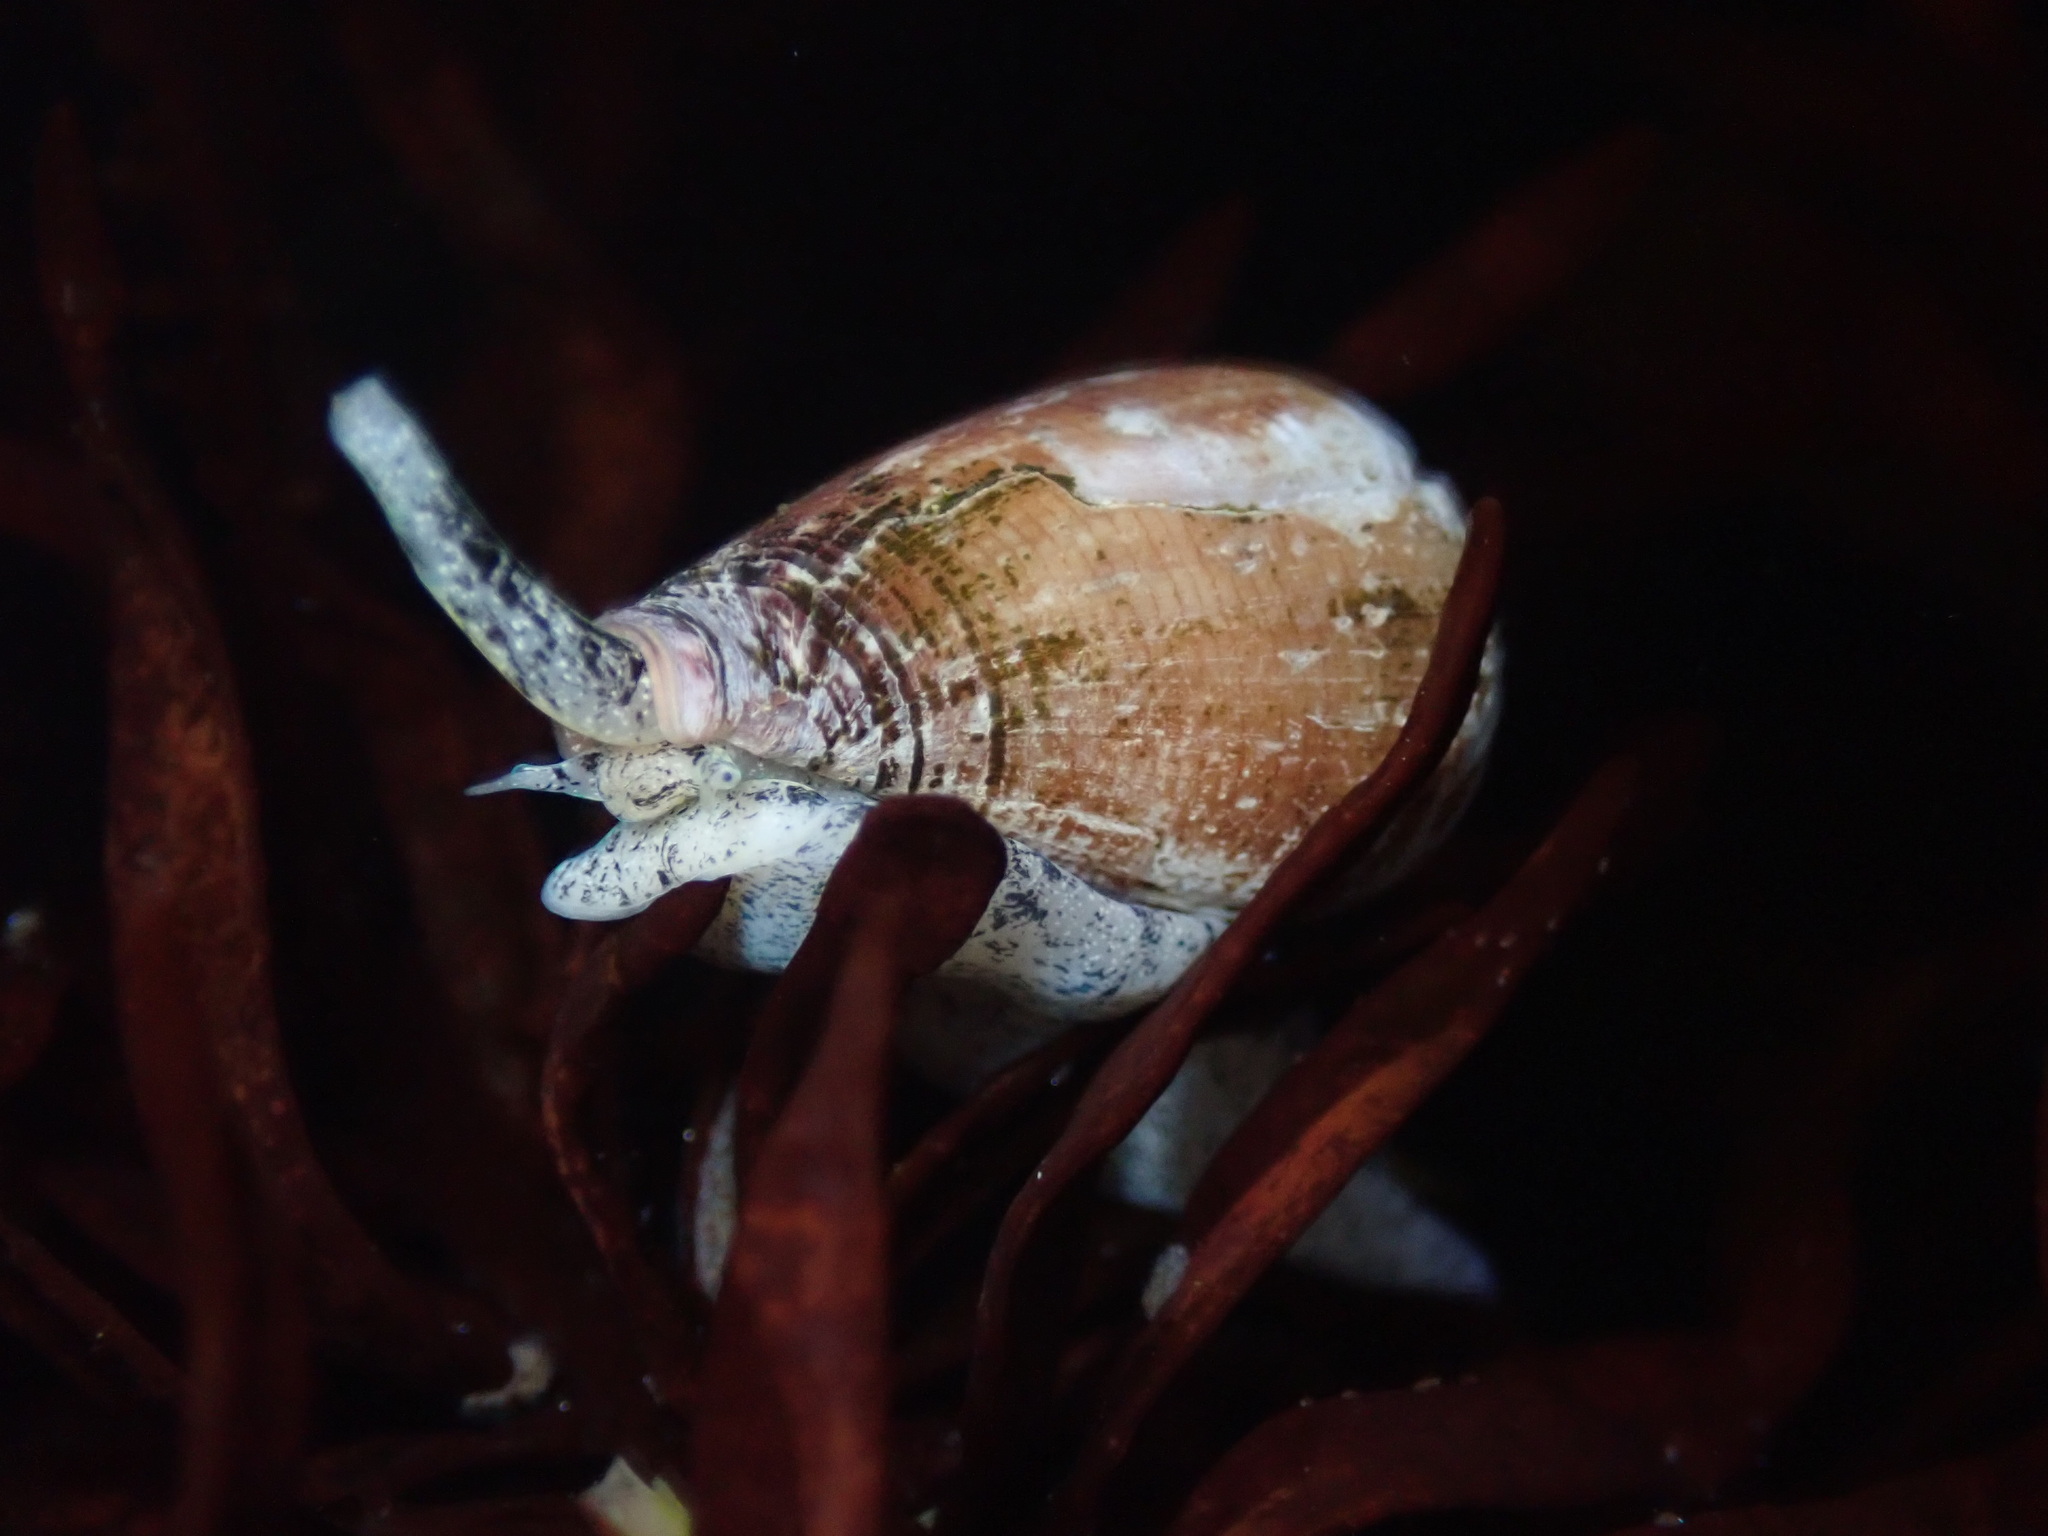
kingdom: Animalia
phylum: Mollusca
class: Gastropoda
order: Neogastropoda
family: Conidae
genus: Californiconus
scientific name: Californiconus californicus
